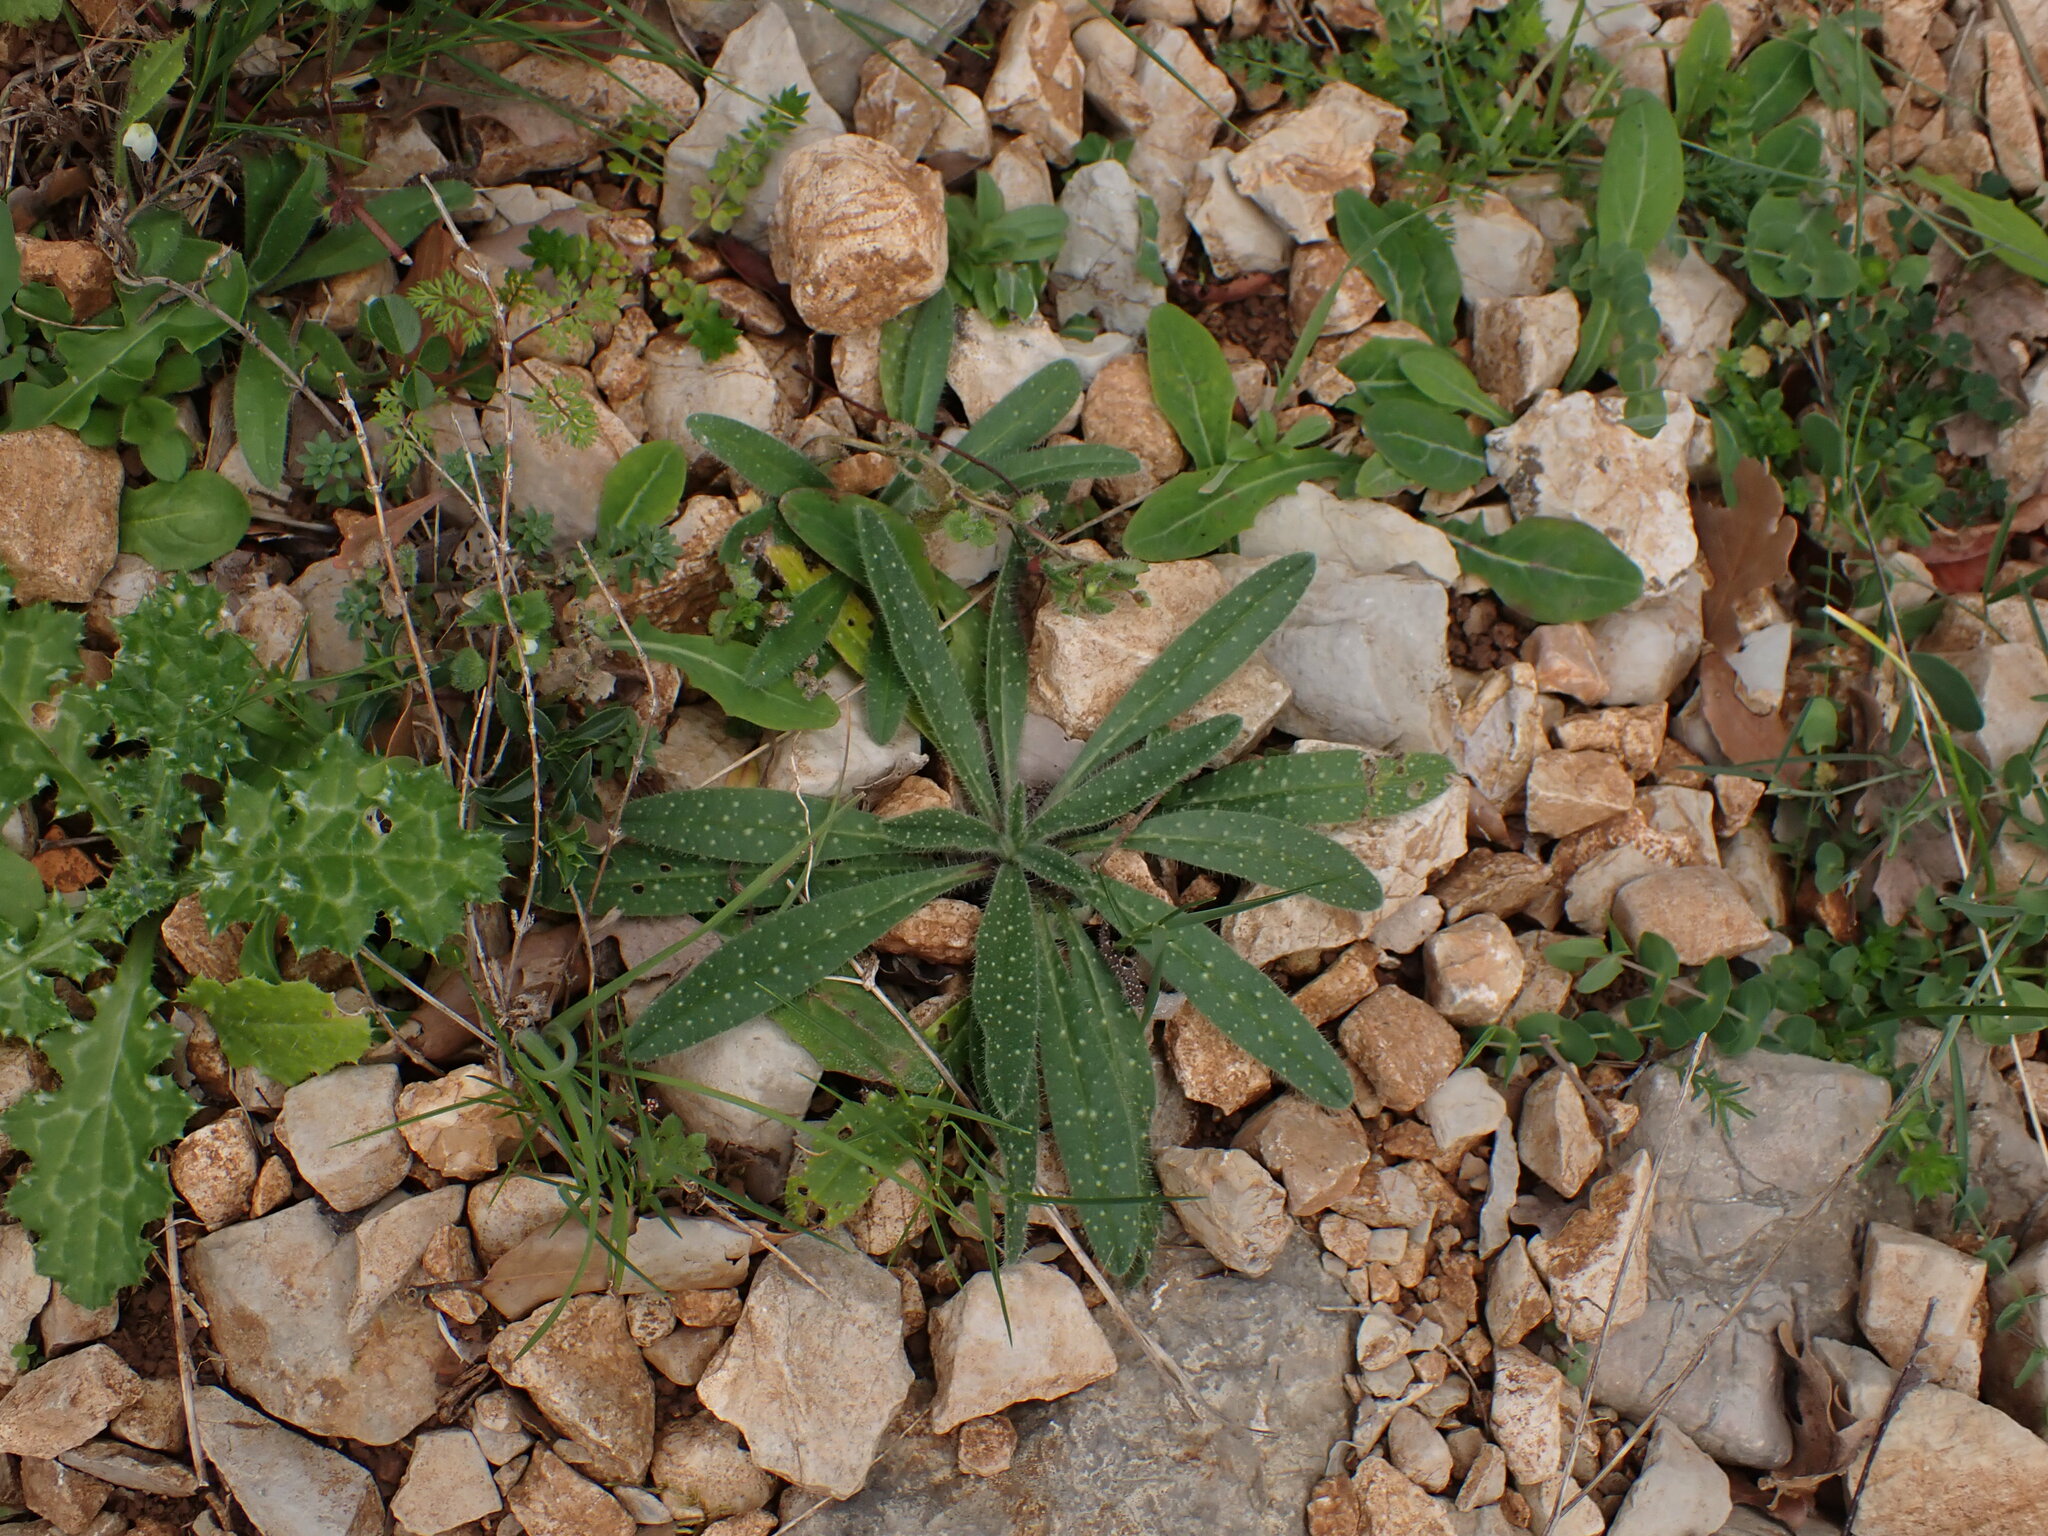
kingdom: Plantae
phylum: Tracheophyta
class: Magnoliopsida
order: Boraginales
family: Boraginaceae
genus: Echium
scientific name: Echium vulgare
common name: Common viper's bugloss
